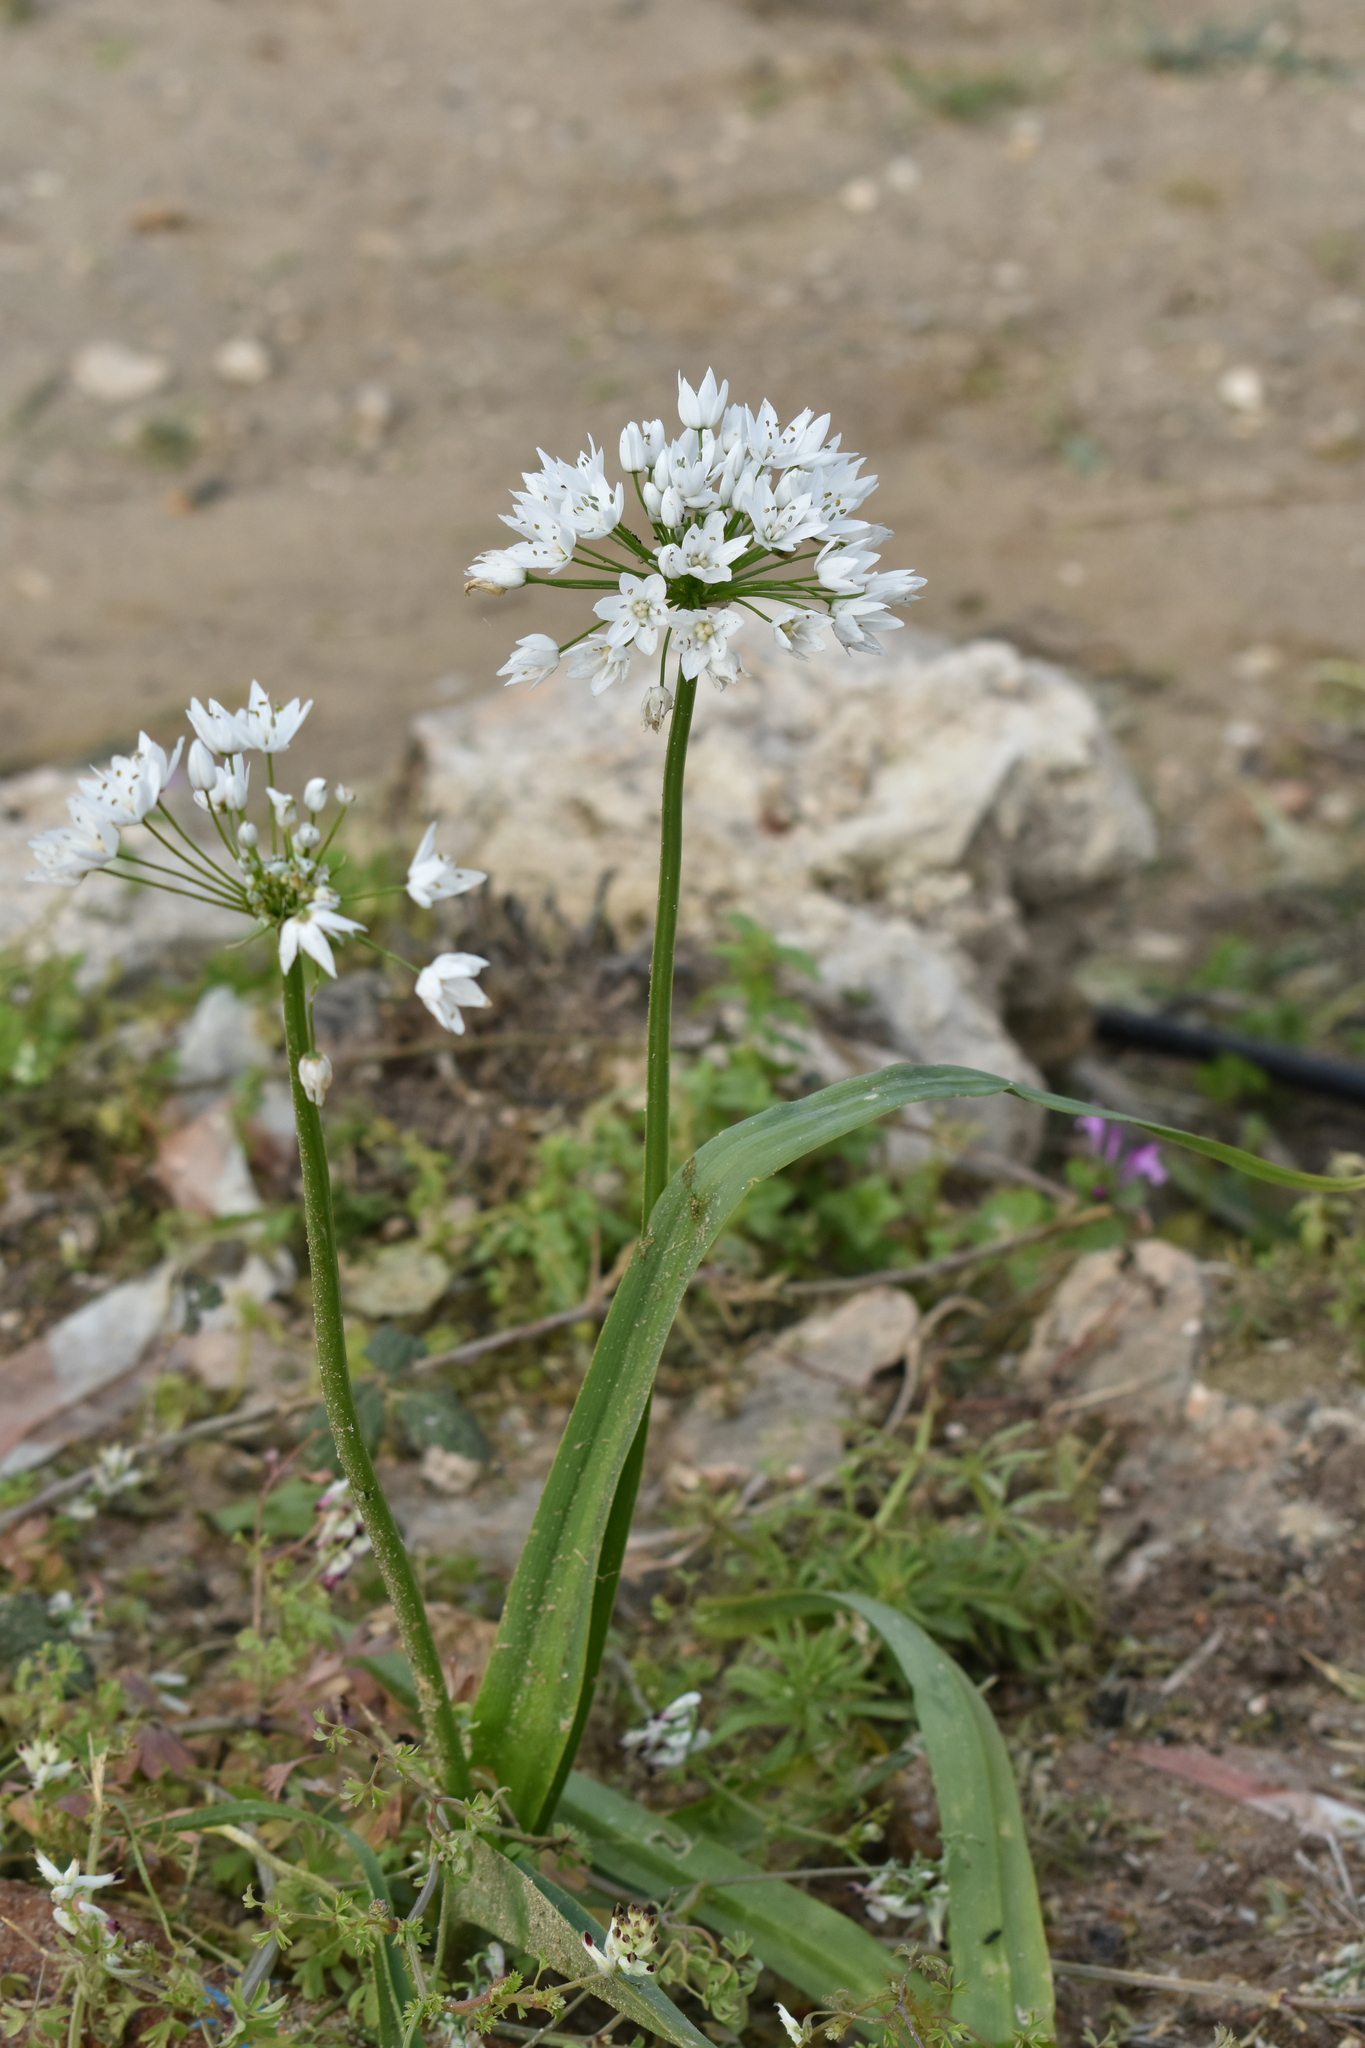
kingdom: Plantae
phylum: Tracheophyta
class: Liliopsida
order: Asparagales
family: Amaryllidaceae
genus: Allium
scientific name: Allium neapolitanum
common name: Neapolitan garlic
